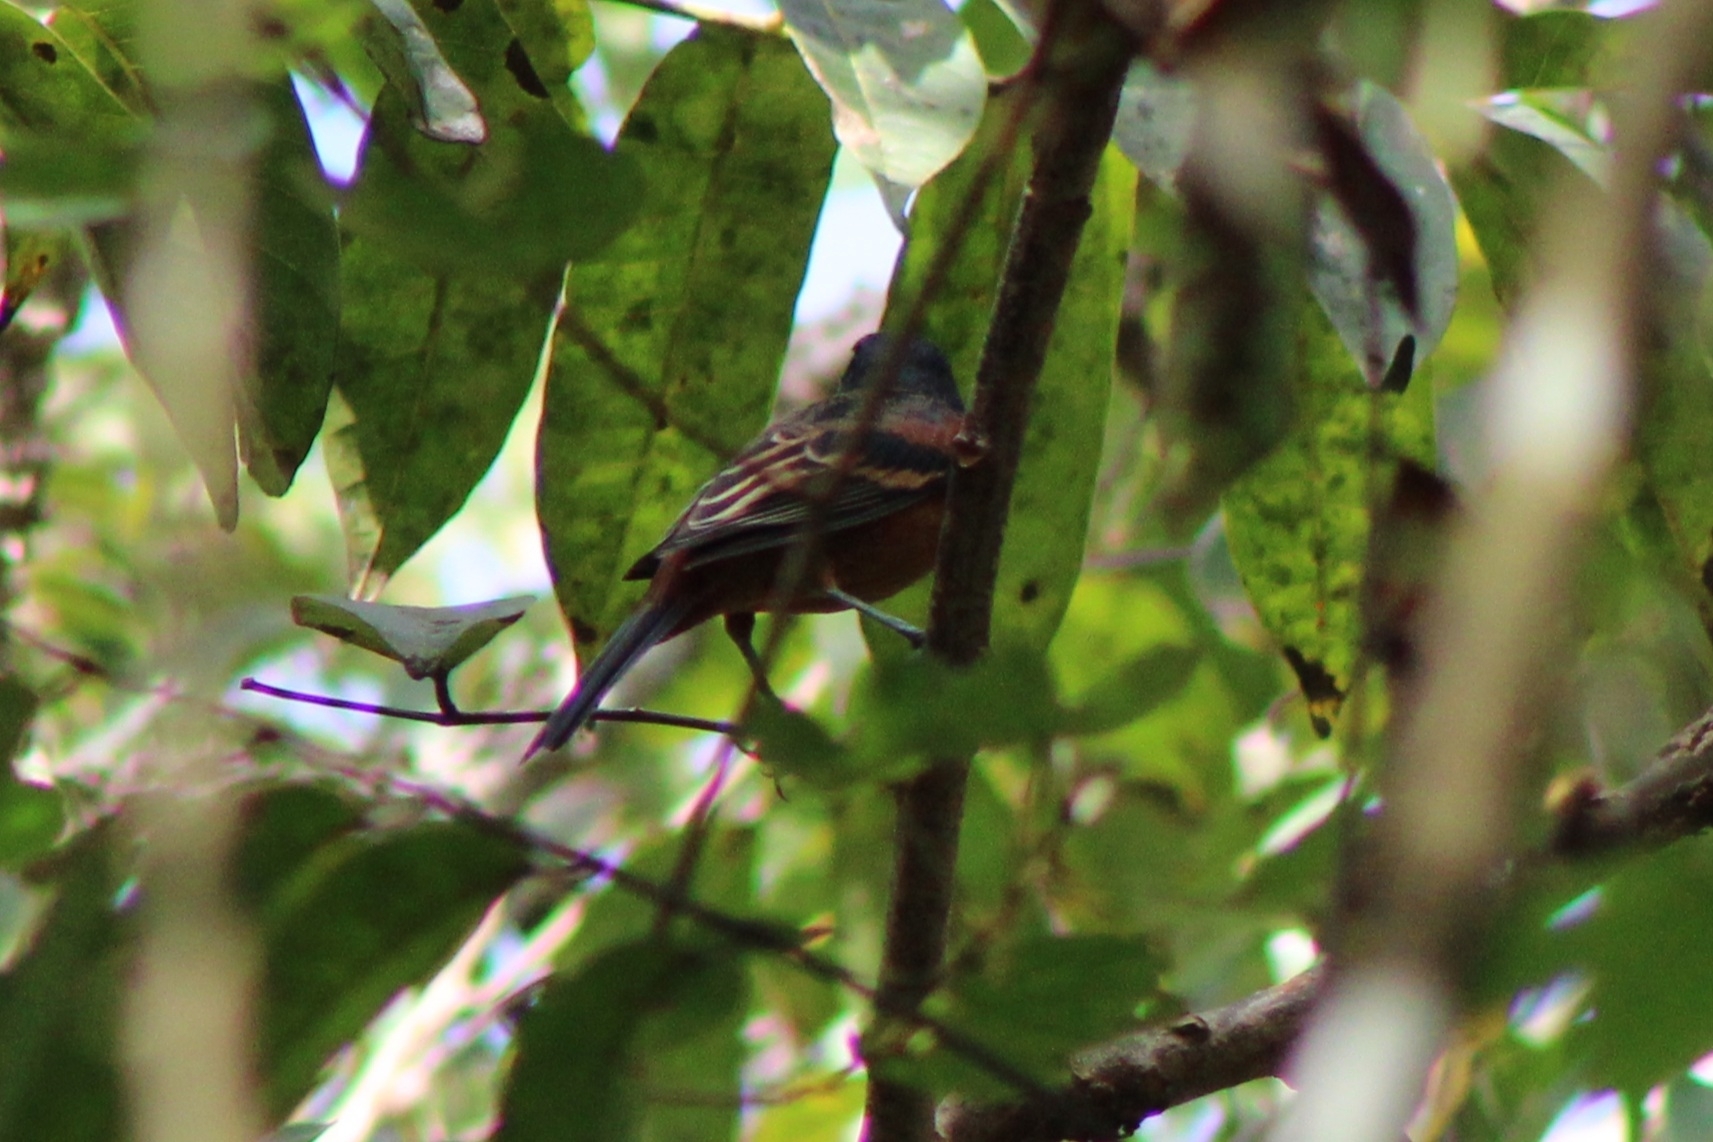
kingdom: Animalia
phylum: Chordata
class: Aves
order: Passeriformes
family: Icteridae
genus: Icterus
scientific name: Icterus spurius
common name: Orchard oriole
